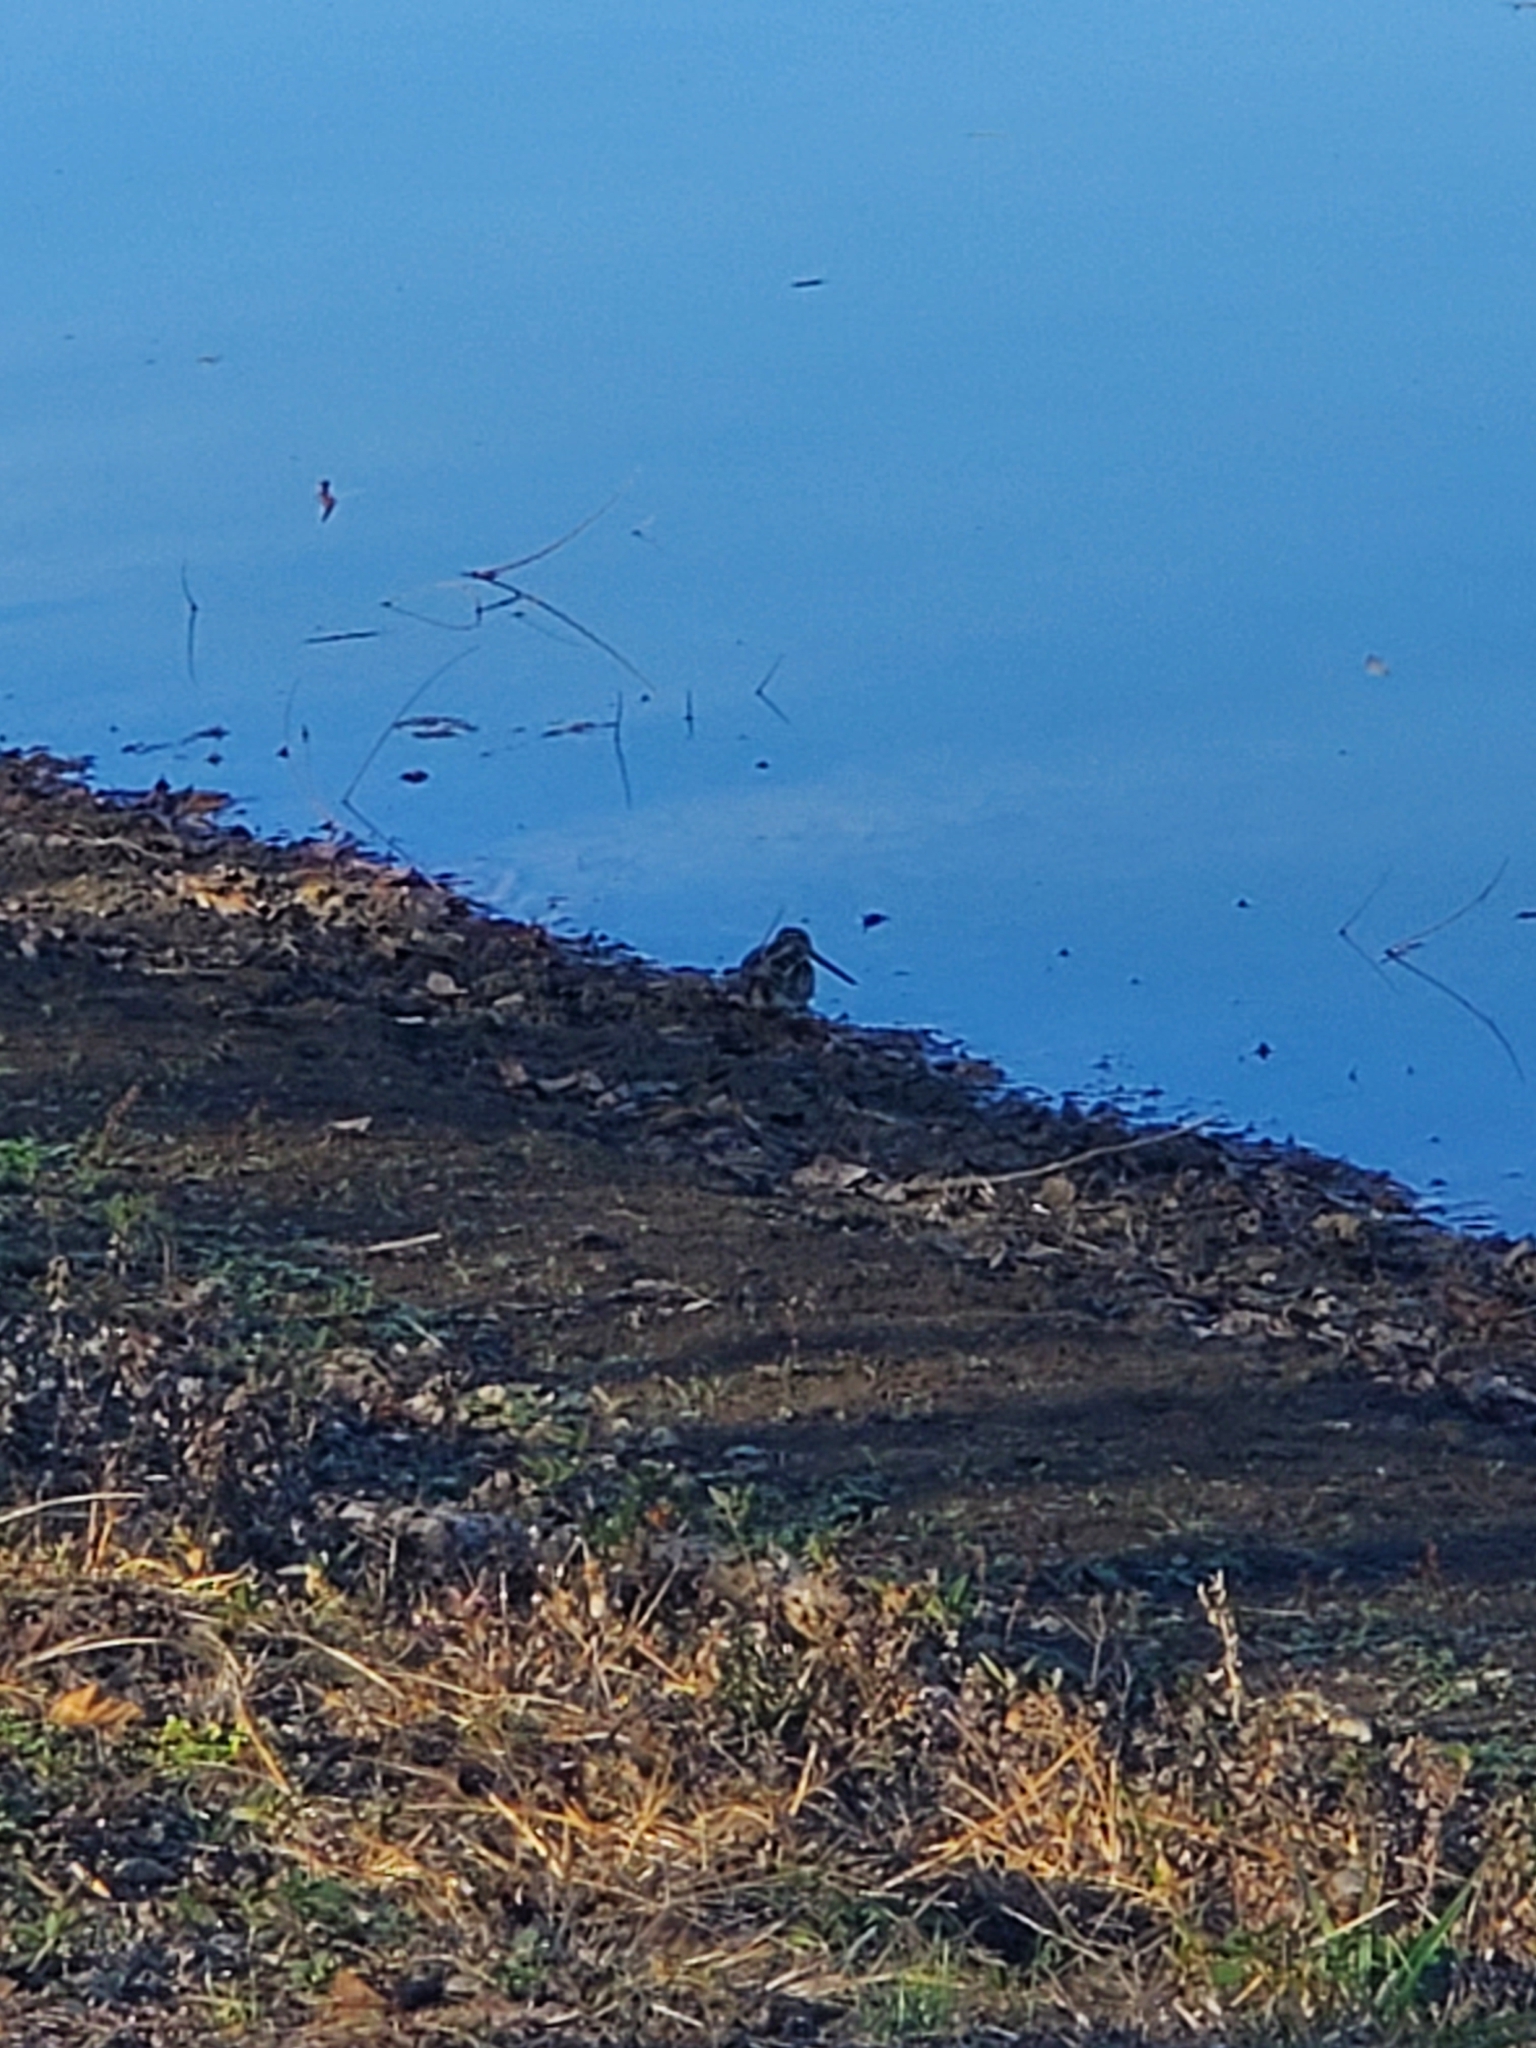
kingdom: Animalia
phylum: Chordata
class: Aves
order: Charadriiformes
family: Scolopacidae
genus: Gallinago
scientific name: Gallinago delicata
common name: Wilson's snipe
